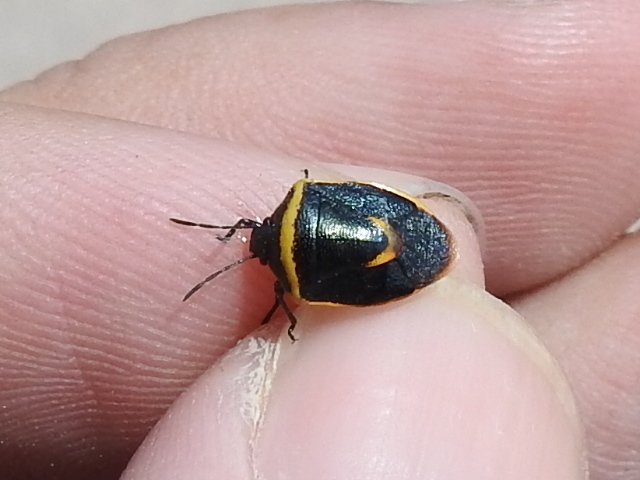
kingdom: Animalia
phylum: Arthropoda
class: Insecta
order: Hemiptera
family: Pentatomidae
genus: Cosmopepla
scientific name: Cosmopepla decorata
